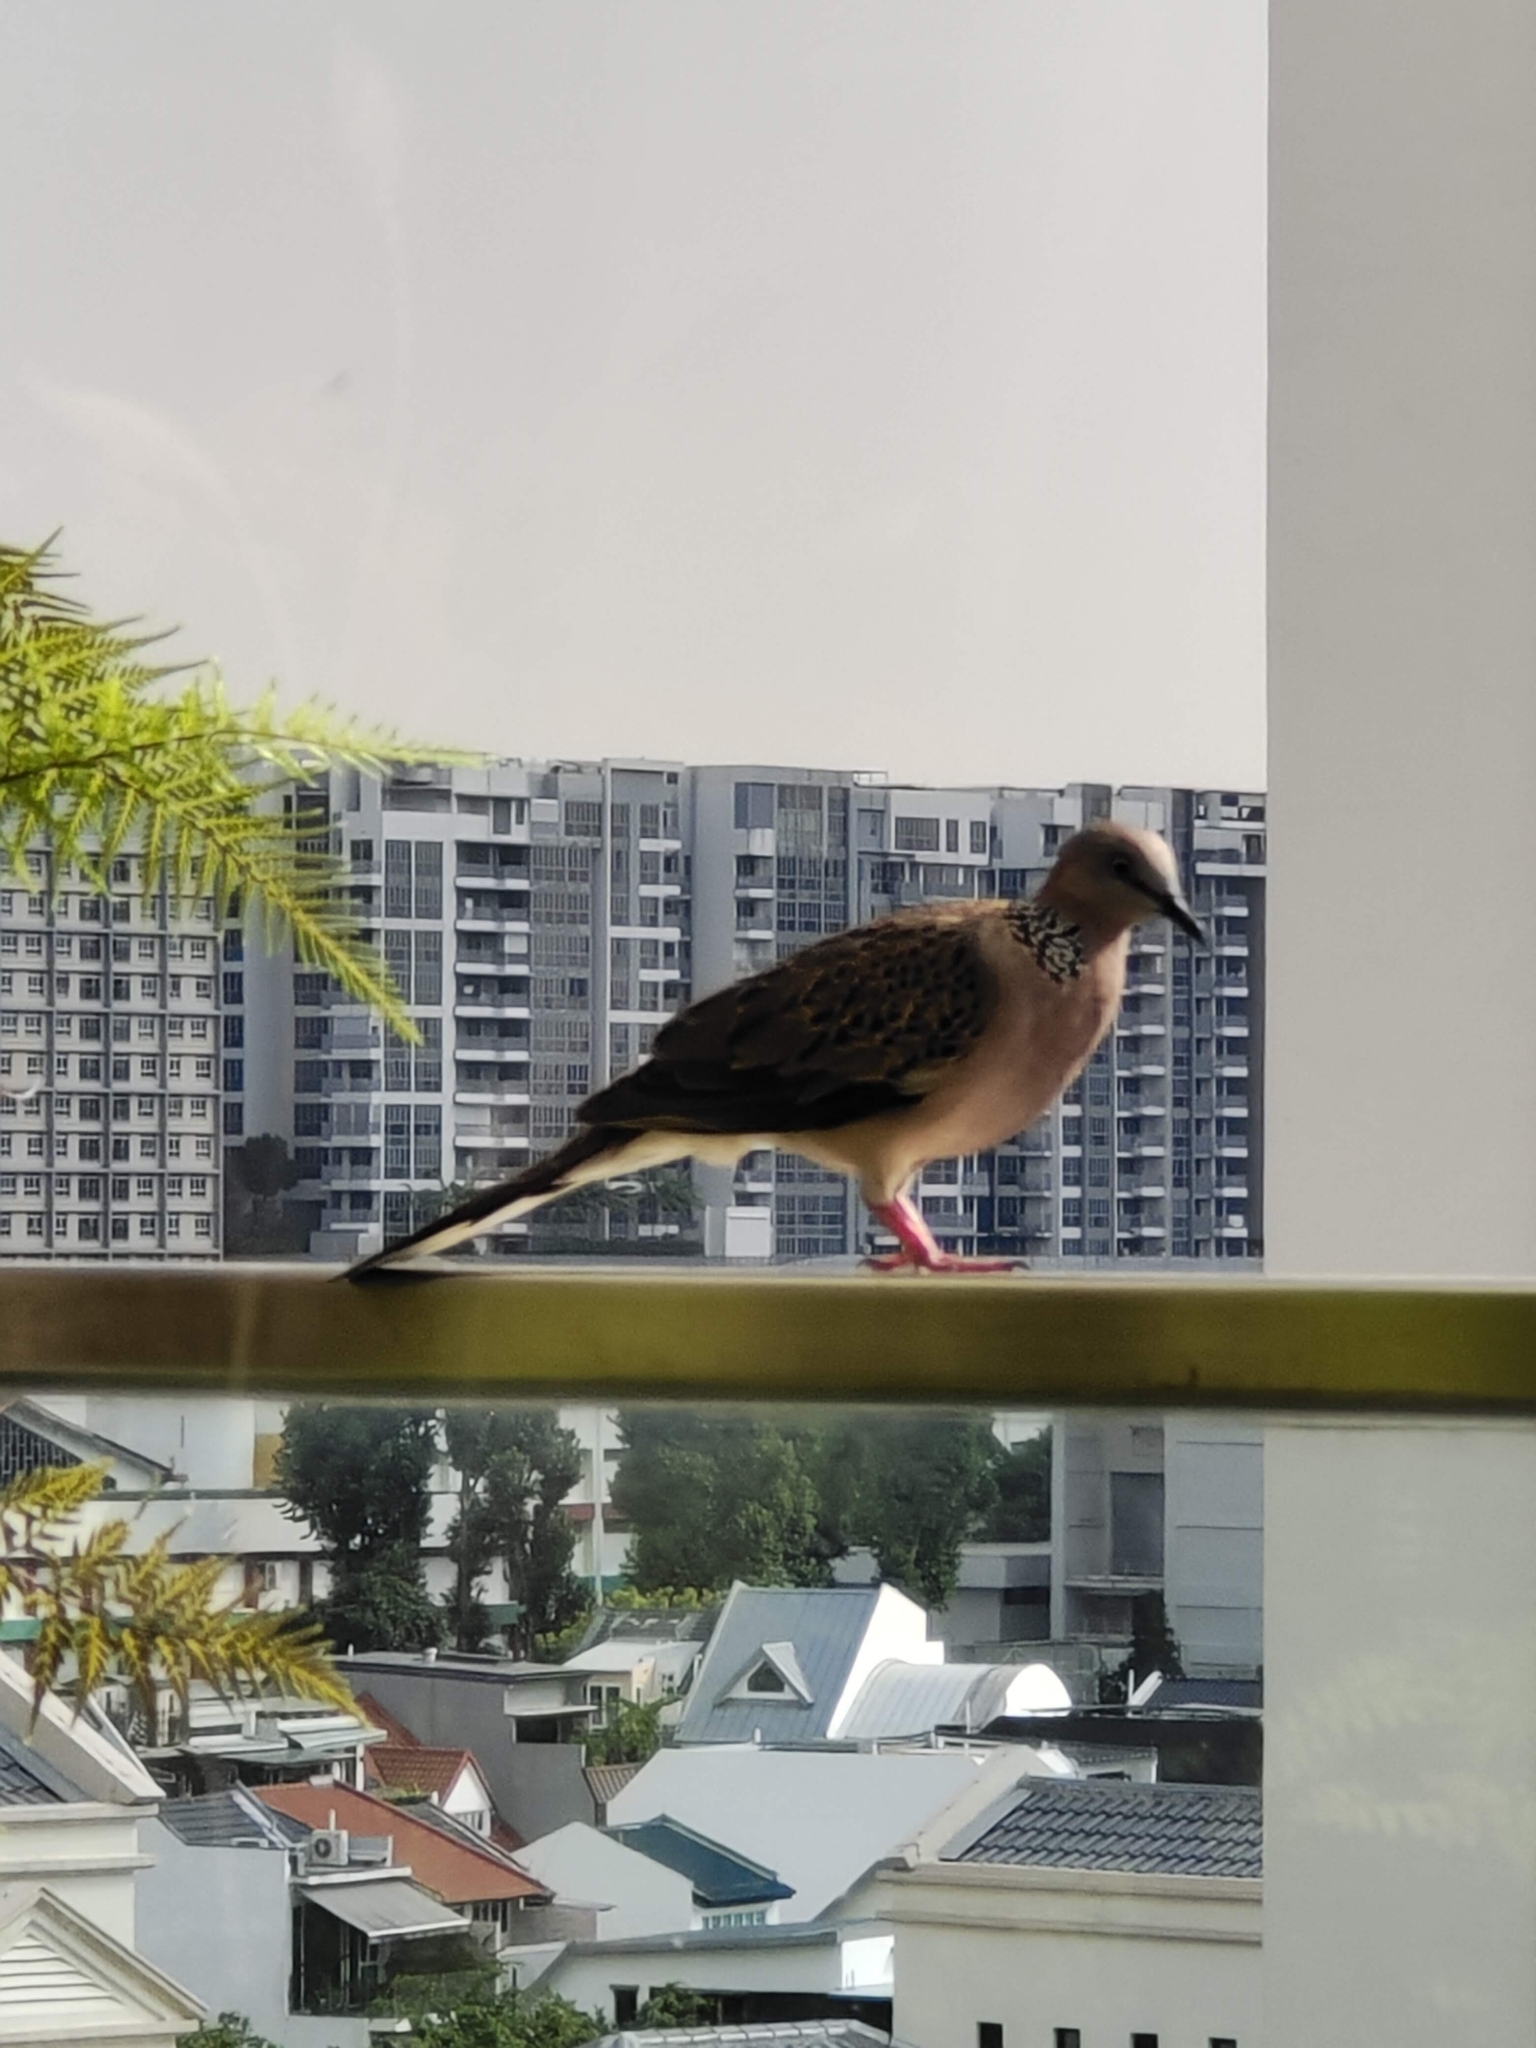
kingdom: Animalia
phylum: Chordata
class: Aves
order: Columbiformes
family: Columbidae
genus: Spilopelia
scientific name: Spilopelia chinensis
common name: Spotted dove
